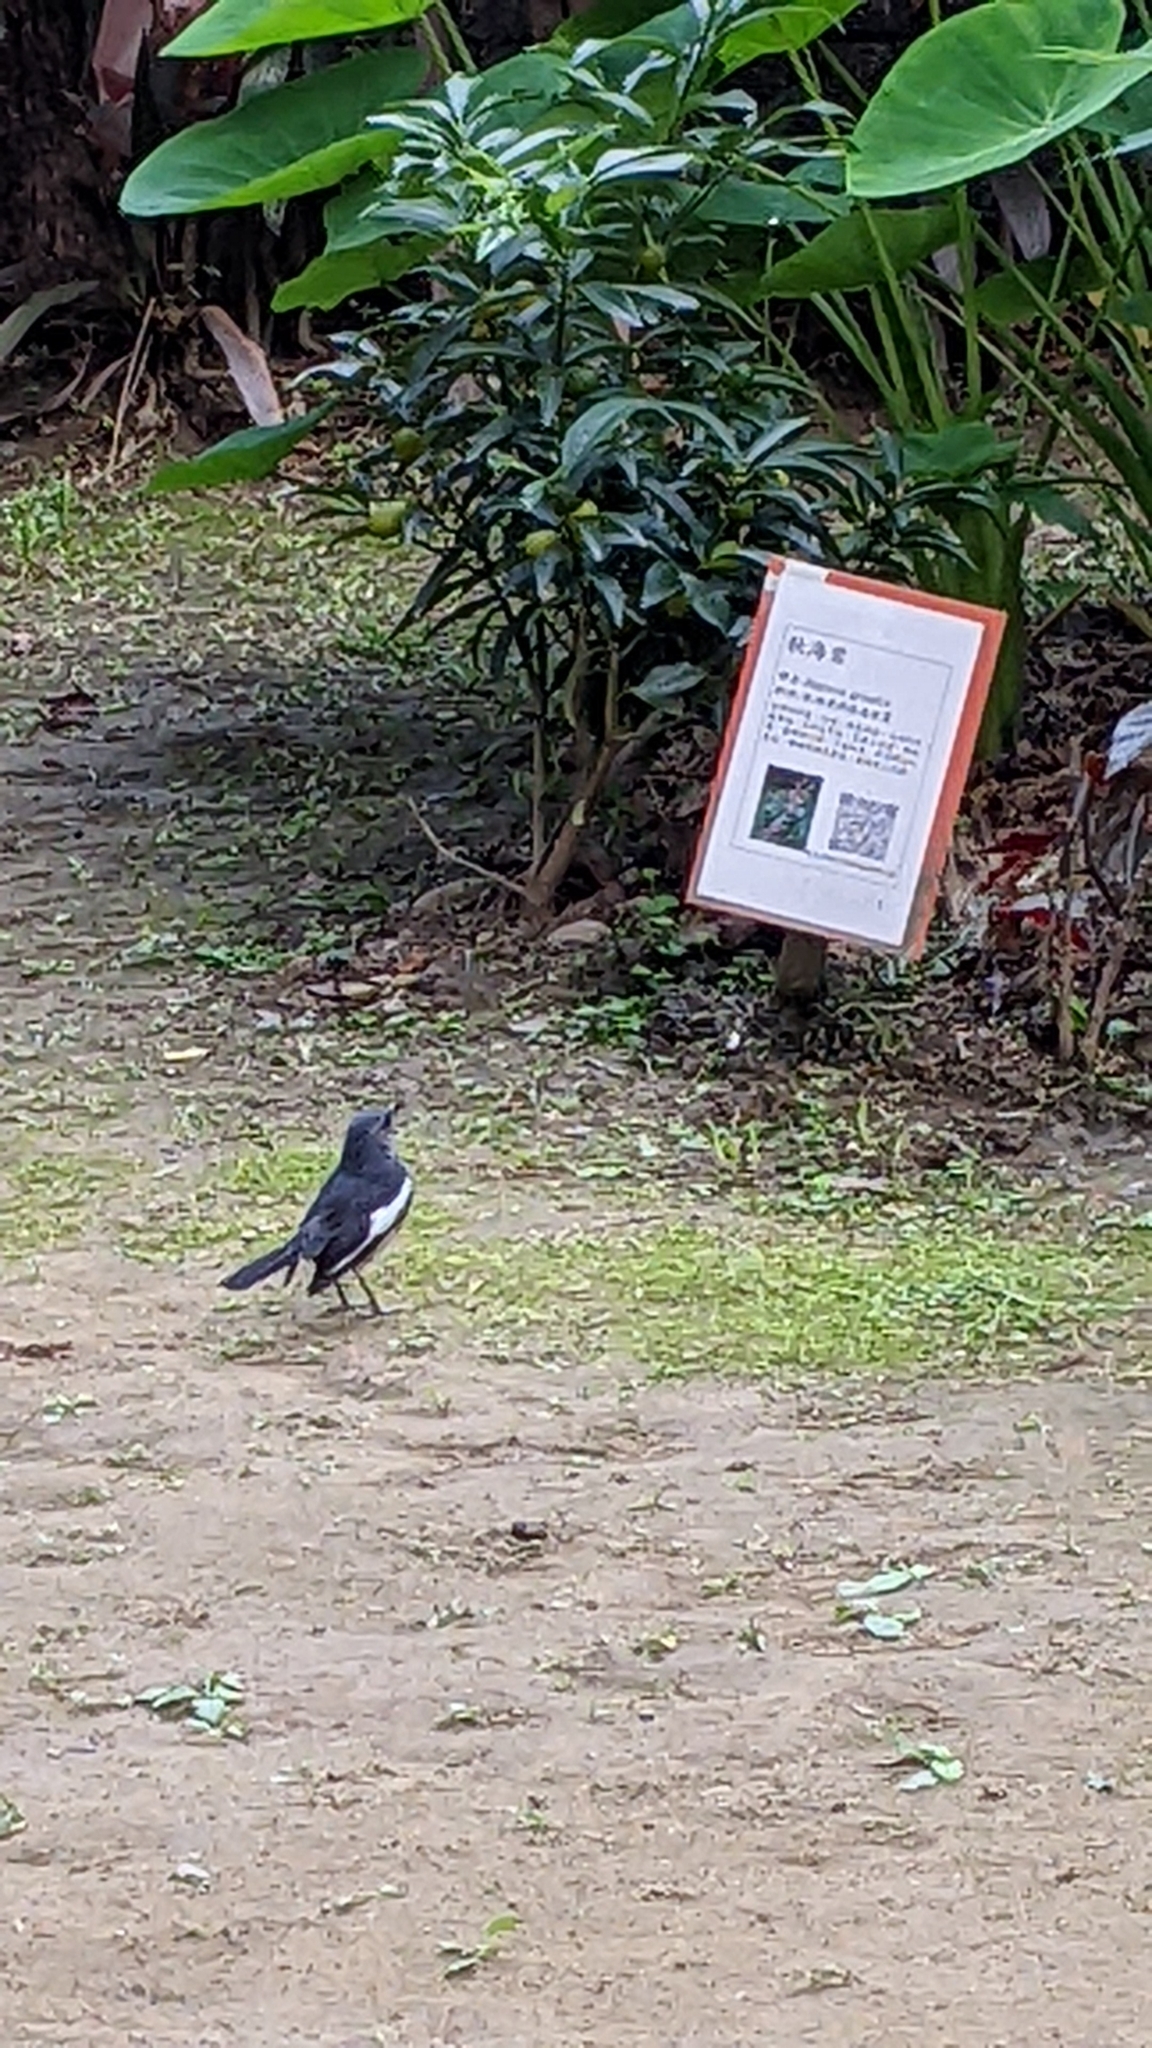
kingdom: Animalia
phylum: Chordata
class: Aves
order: Passeriformes
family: Muscicapidae
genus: Copsychus
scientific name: Copsychus saularis
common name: Oriental magpie-robin
